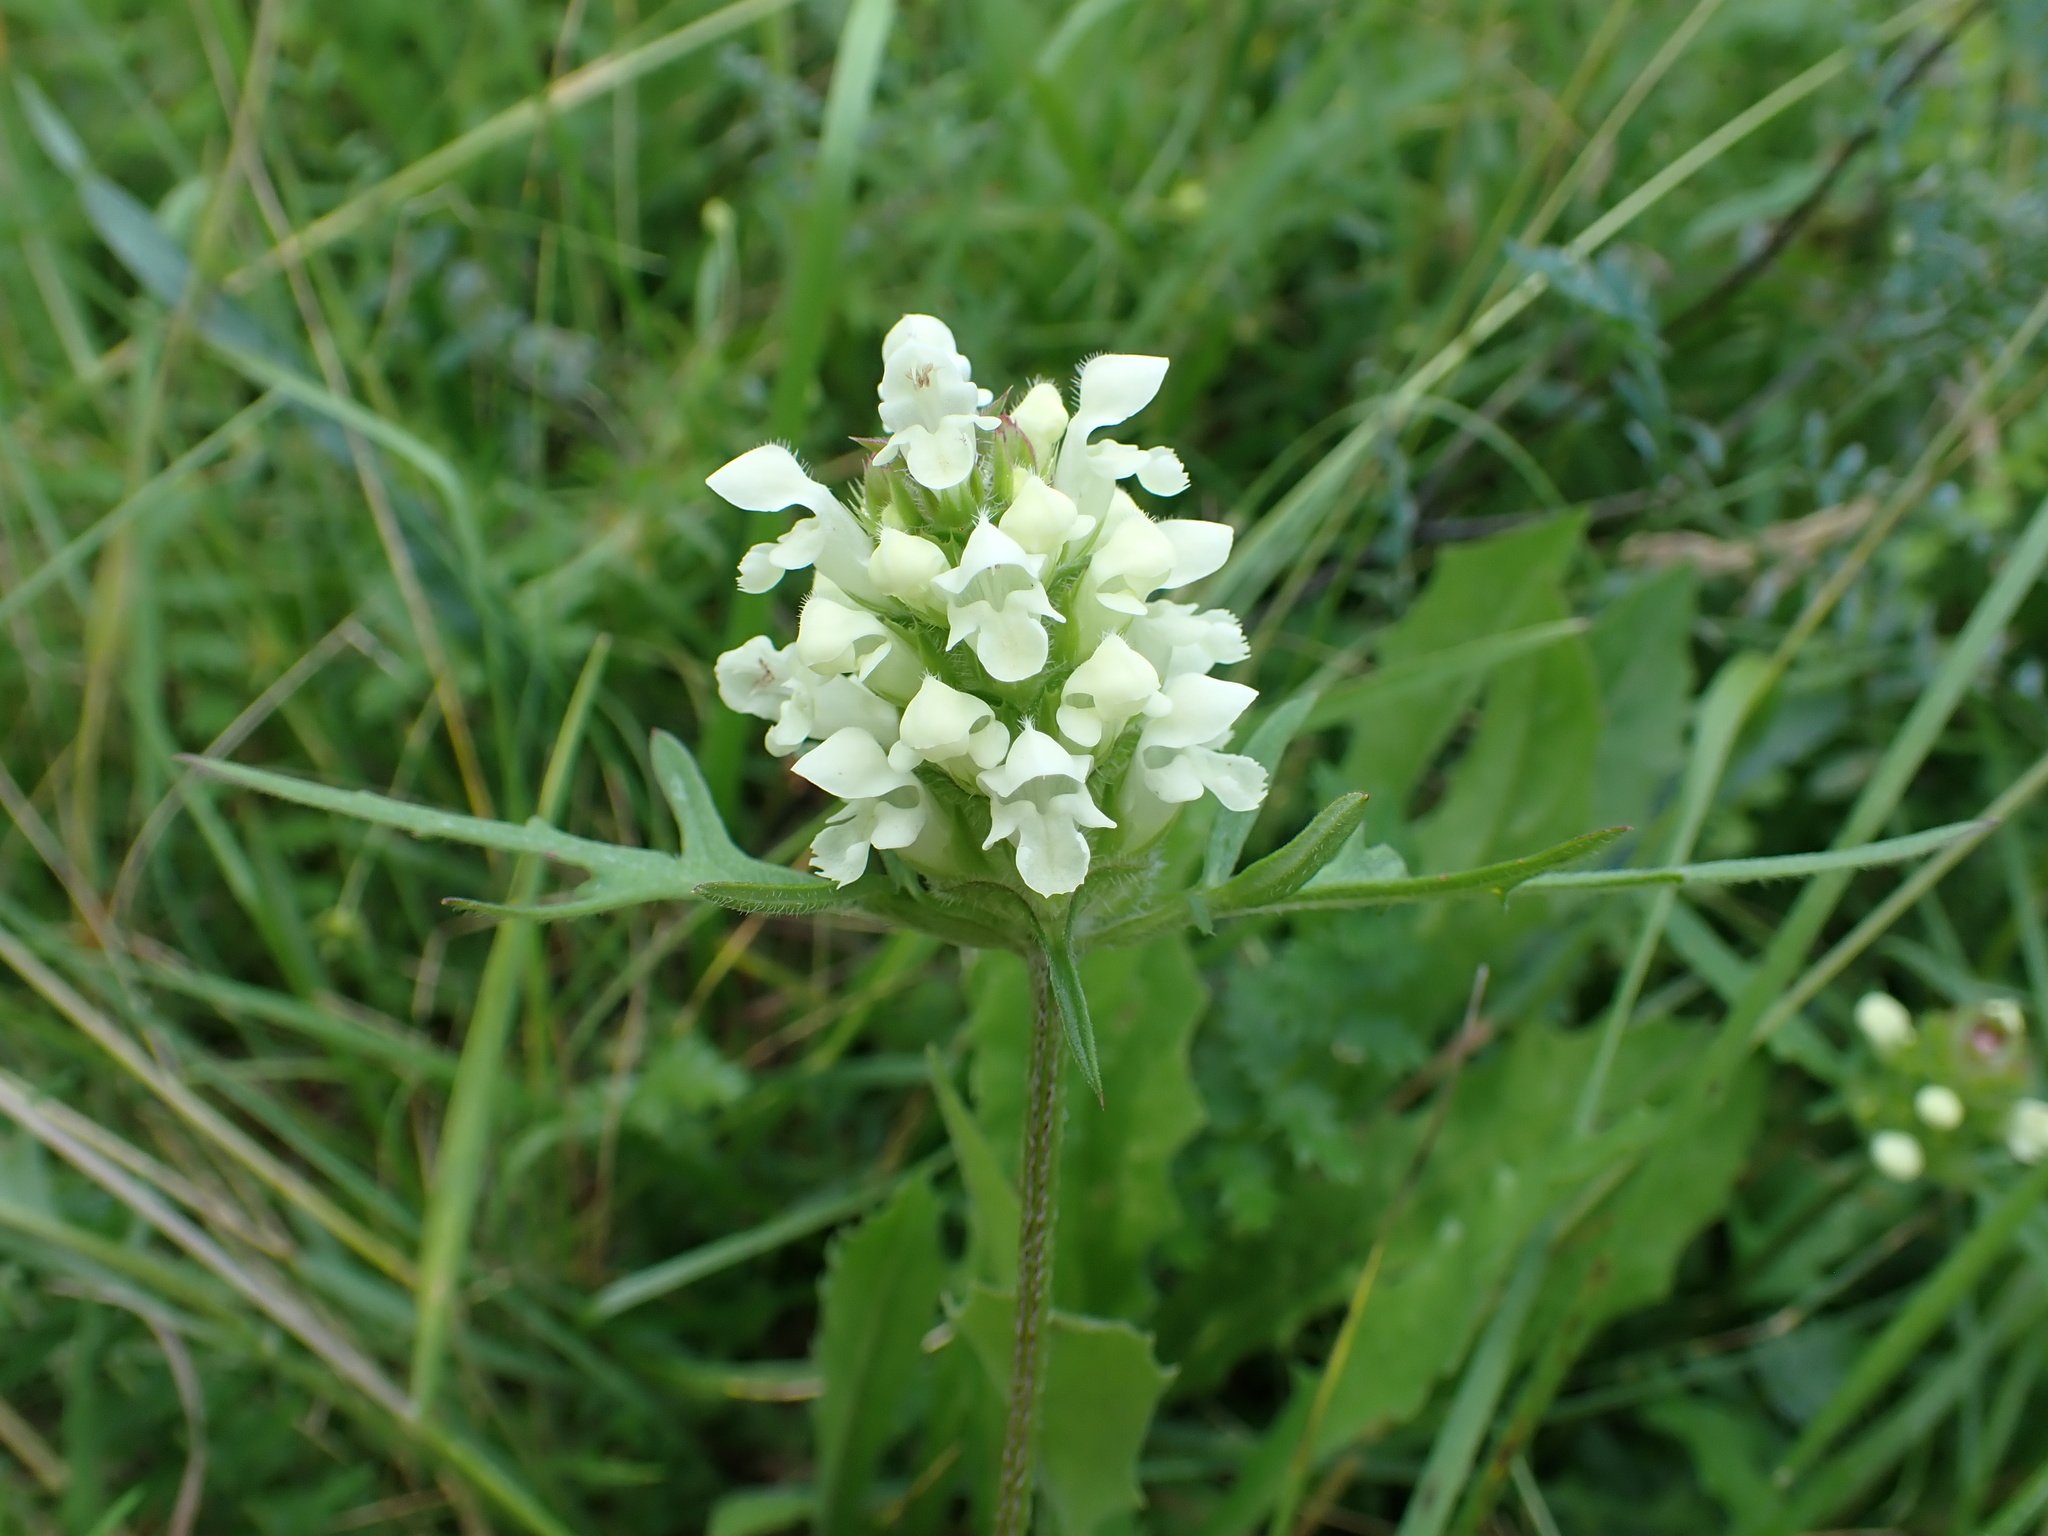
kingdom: Plantae
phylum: Tracheophyta
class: Magnoliopsida
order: Lamiales
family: Lamiaceae
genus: Prunella
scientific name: Prunella laciniata
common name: Cut-leaved selfheal
